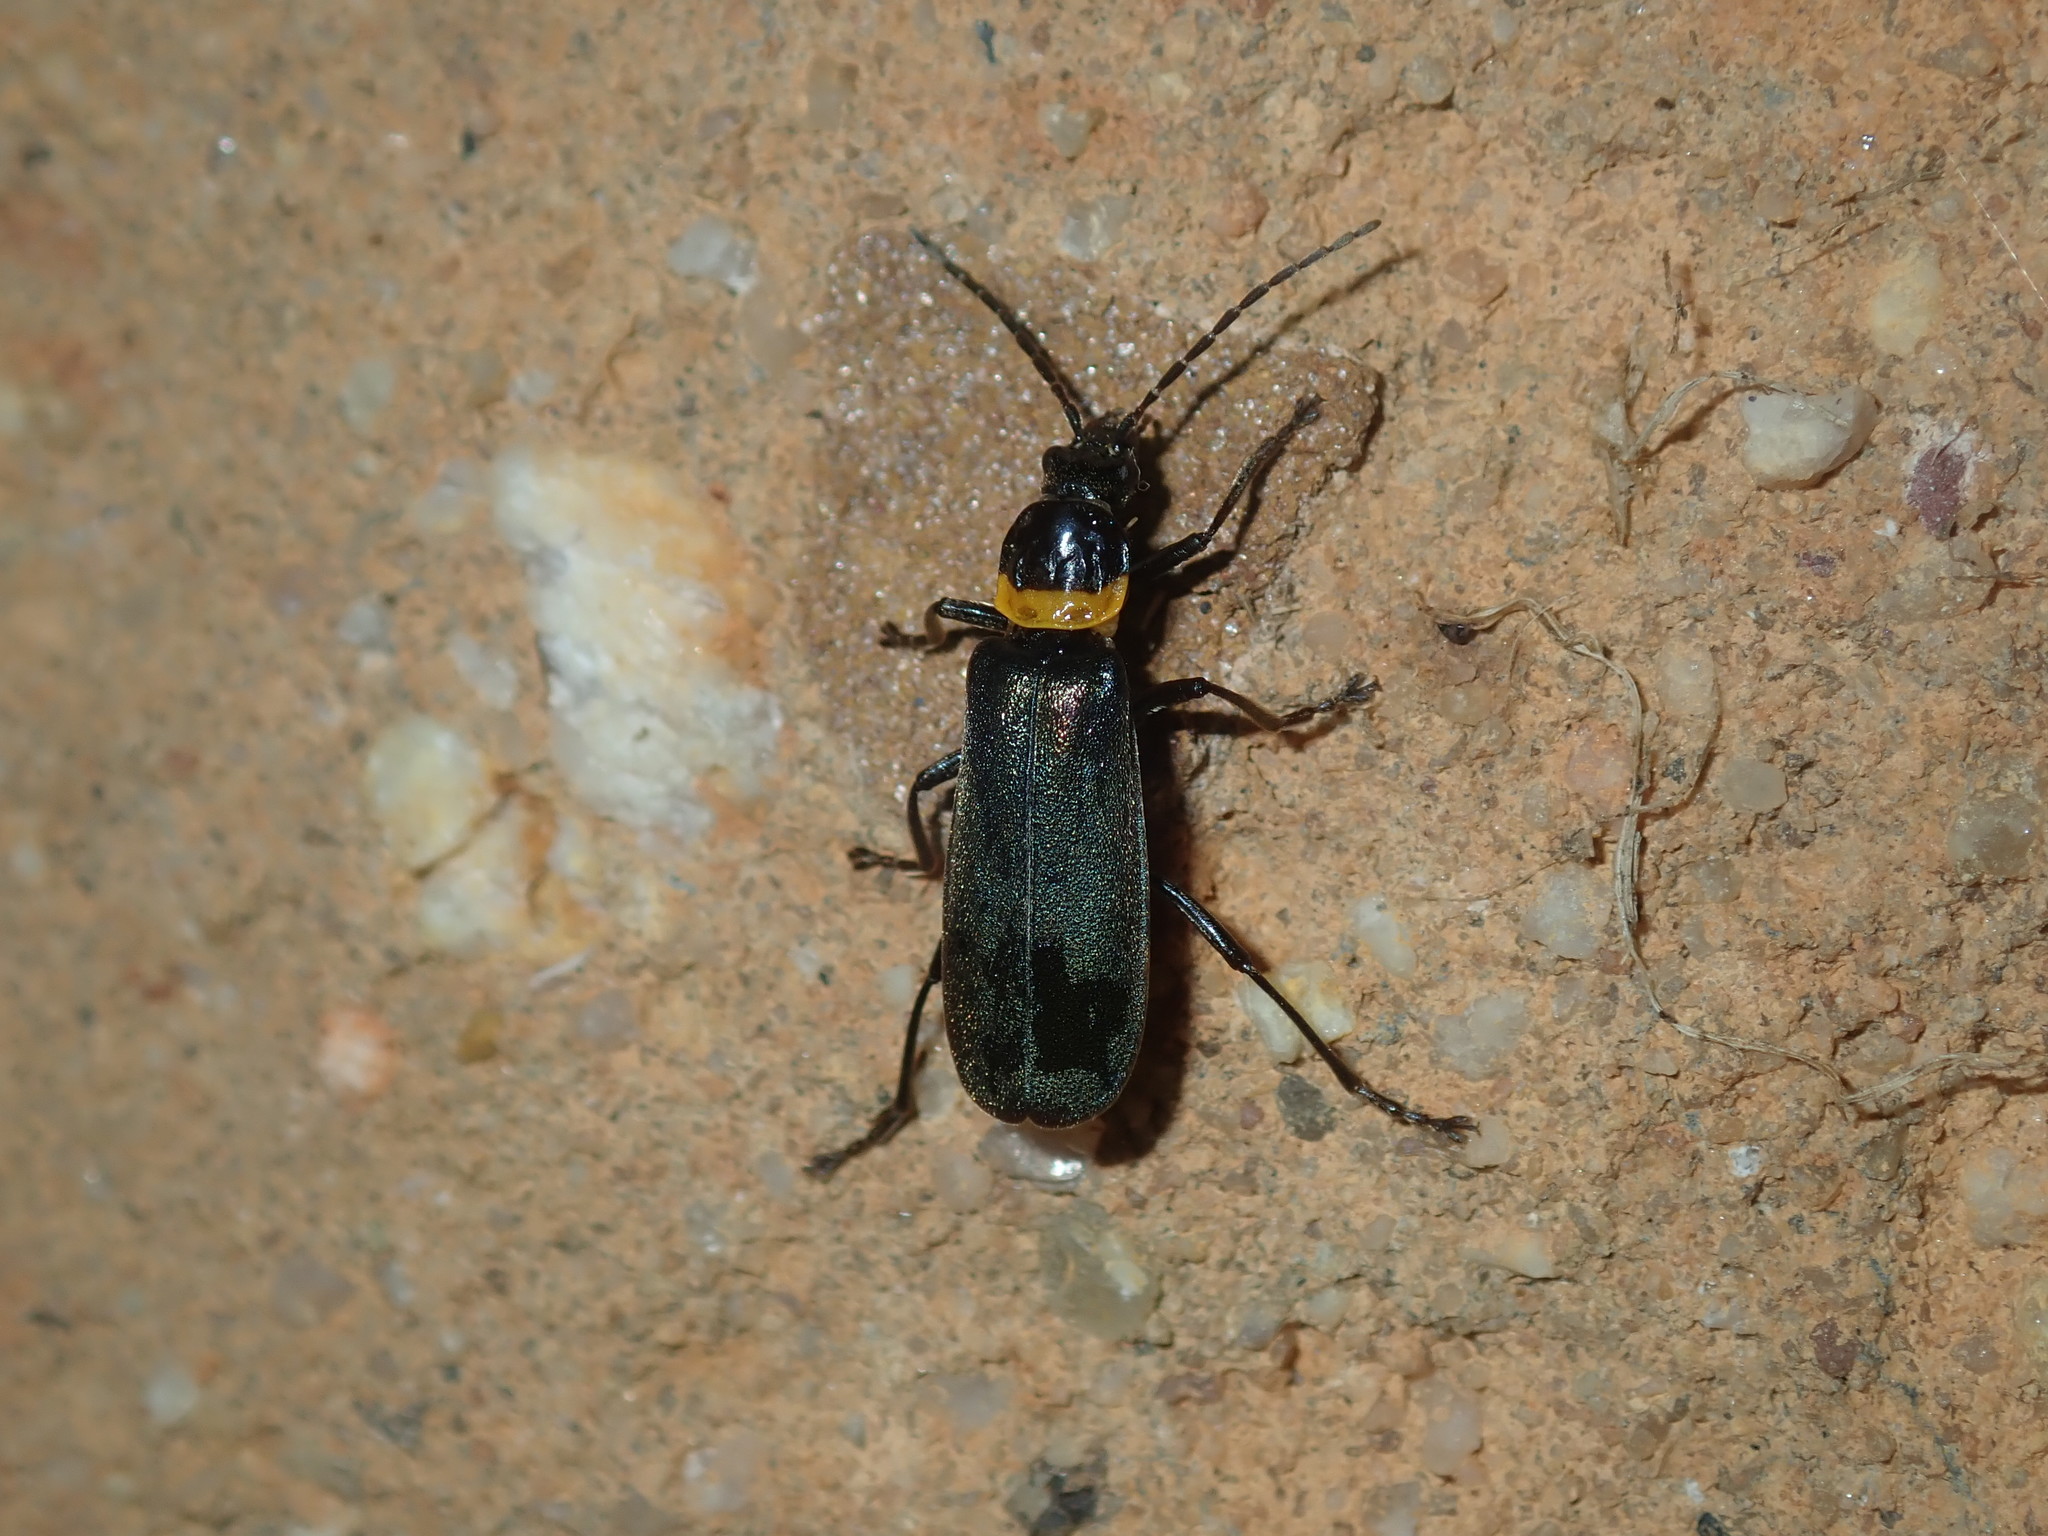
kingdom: Animalia
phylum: Arthropoda
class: Insecta
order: Coleoptera
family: Cantharidae
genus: Chauliognathus
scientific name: Chauliognathus
